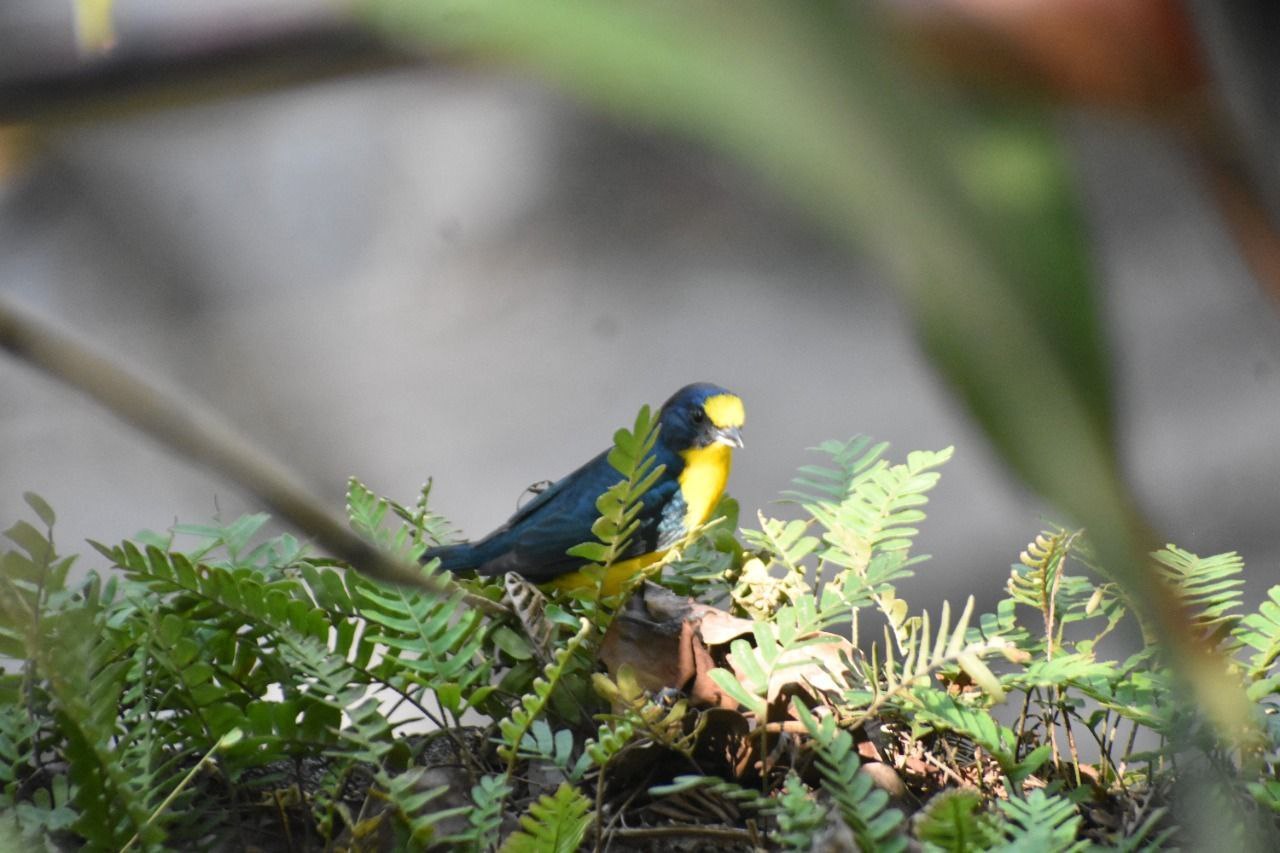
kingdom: Animalia
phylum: Chordata
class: Aves
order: Passeriformes
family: Fringillidae
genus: Euphonia
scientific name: Euphonia hirundinacea
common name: Yellow-throated euphonia
